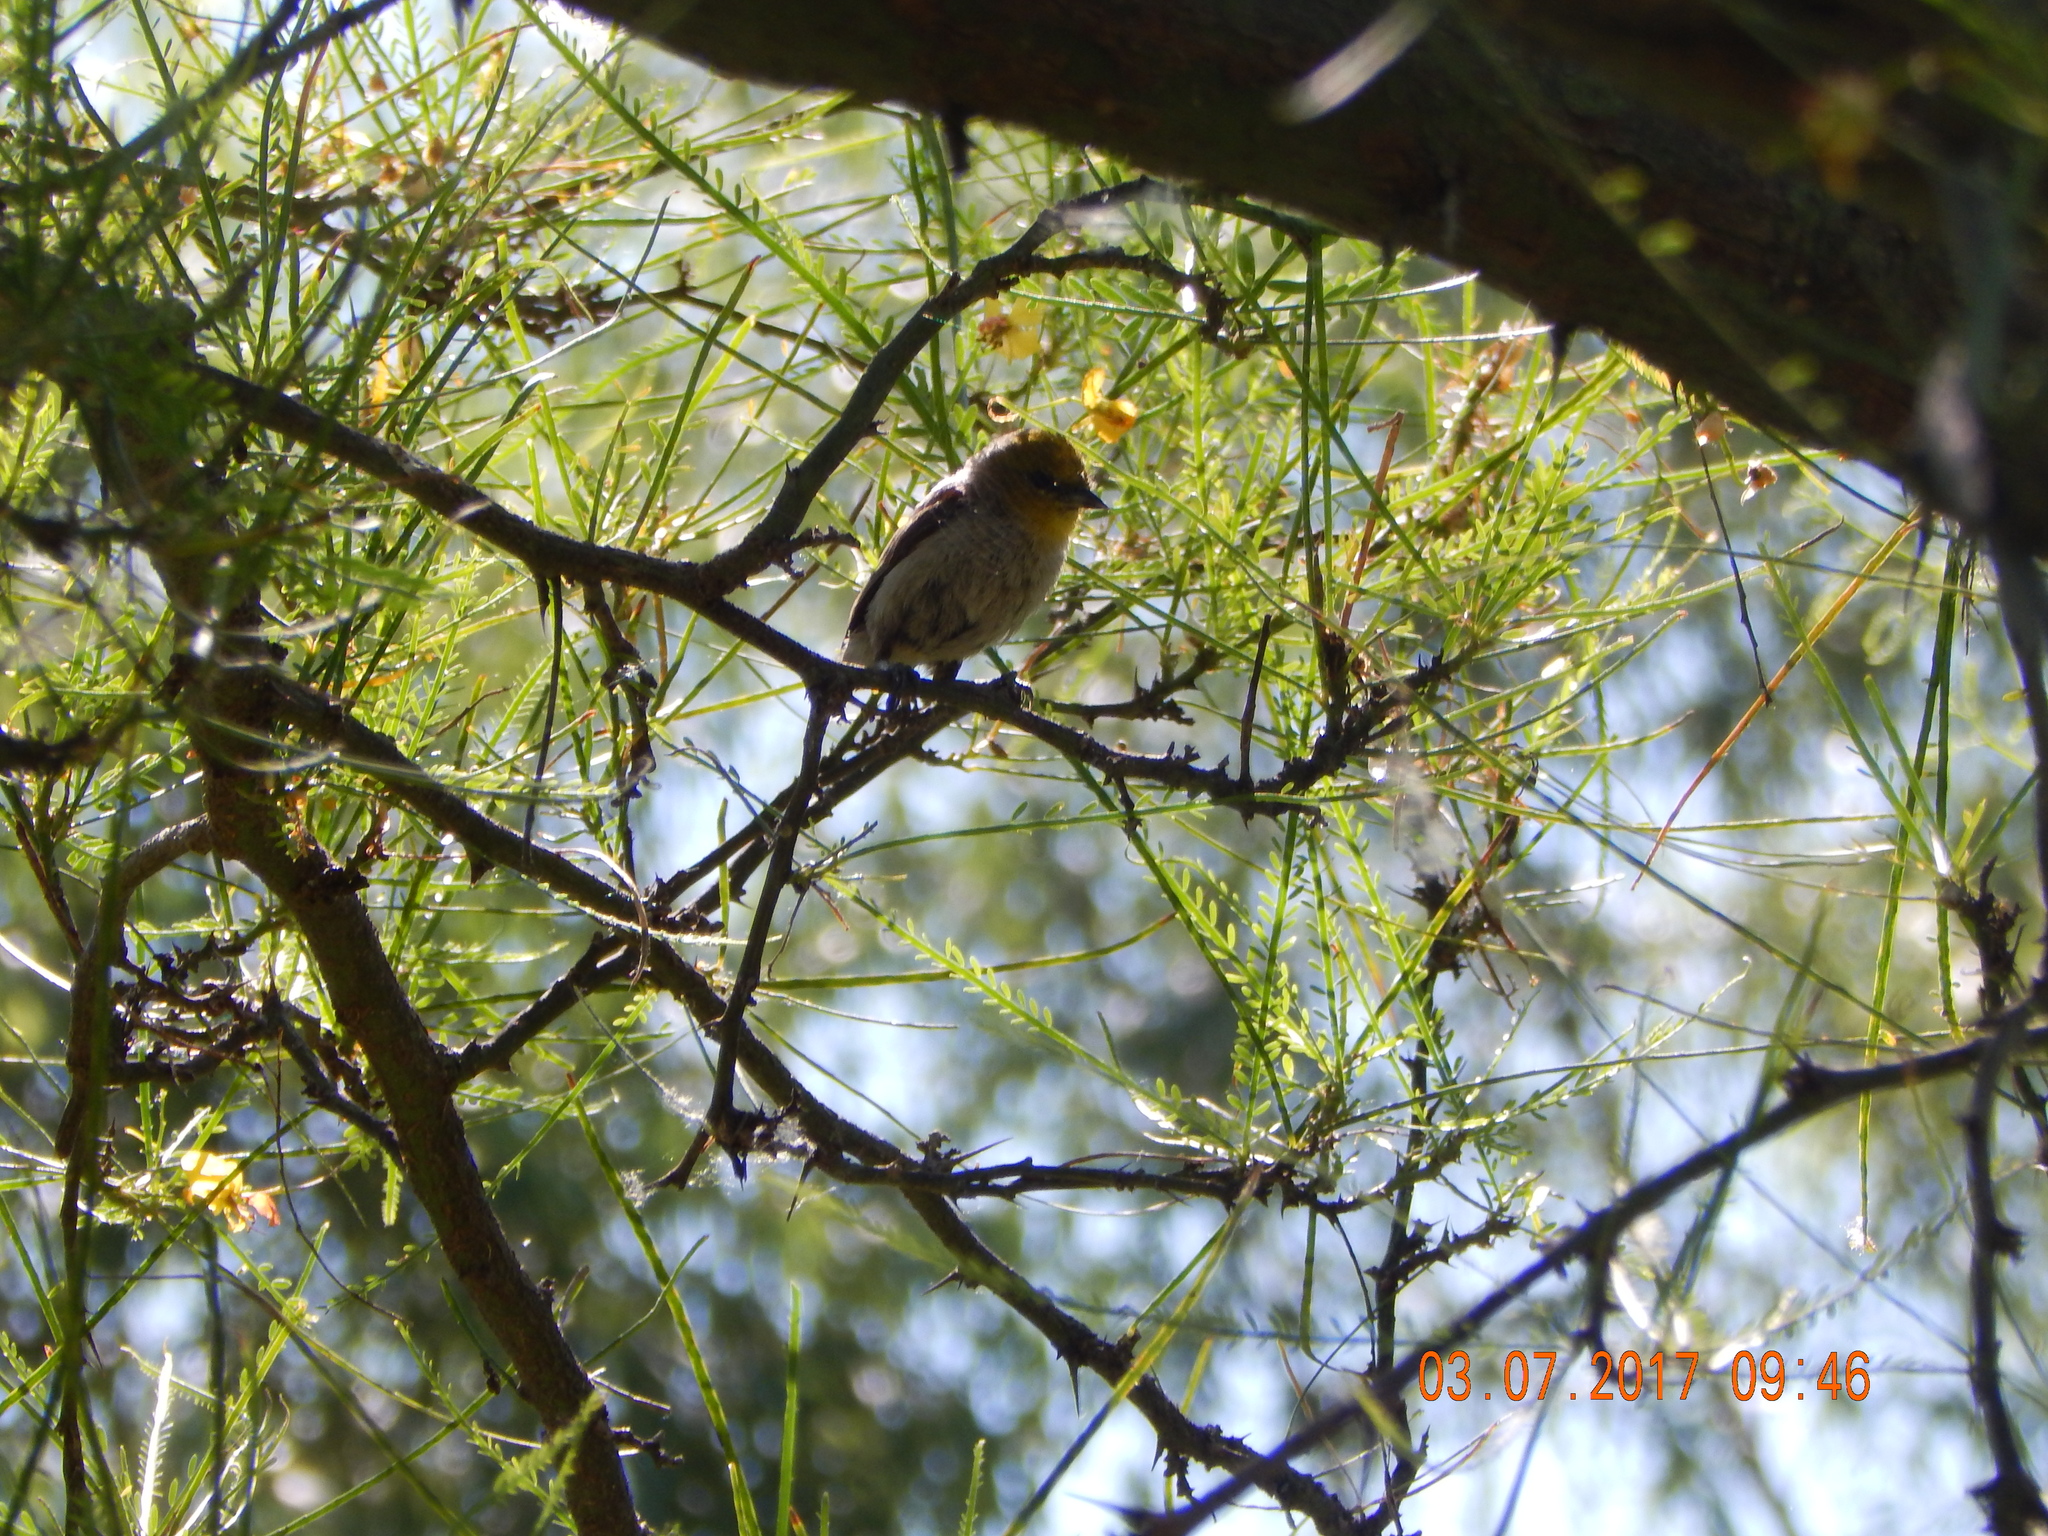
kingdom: Animalia
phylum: Chordata
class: Aves
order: Passeriformes
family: Remizidae
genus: Auriparus
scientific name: Auriparus flaviceps
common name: Verdin
